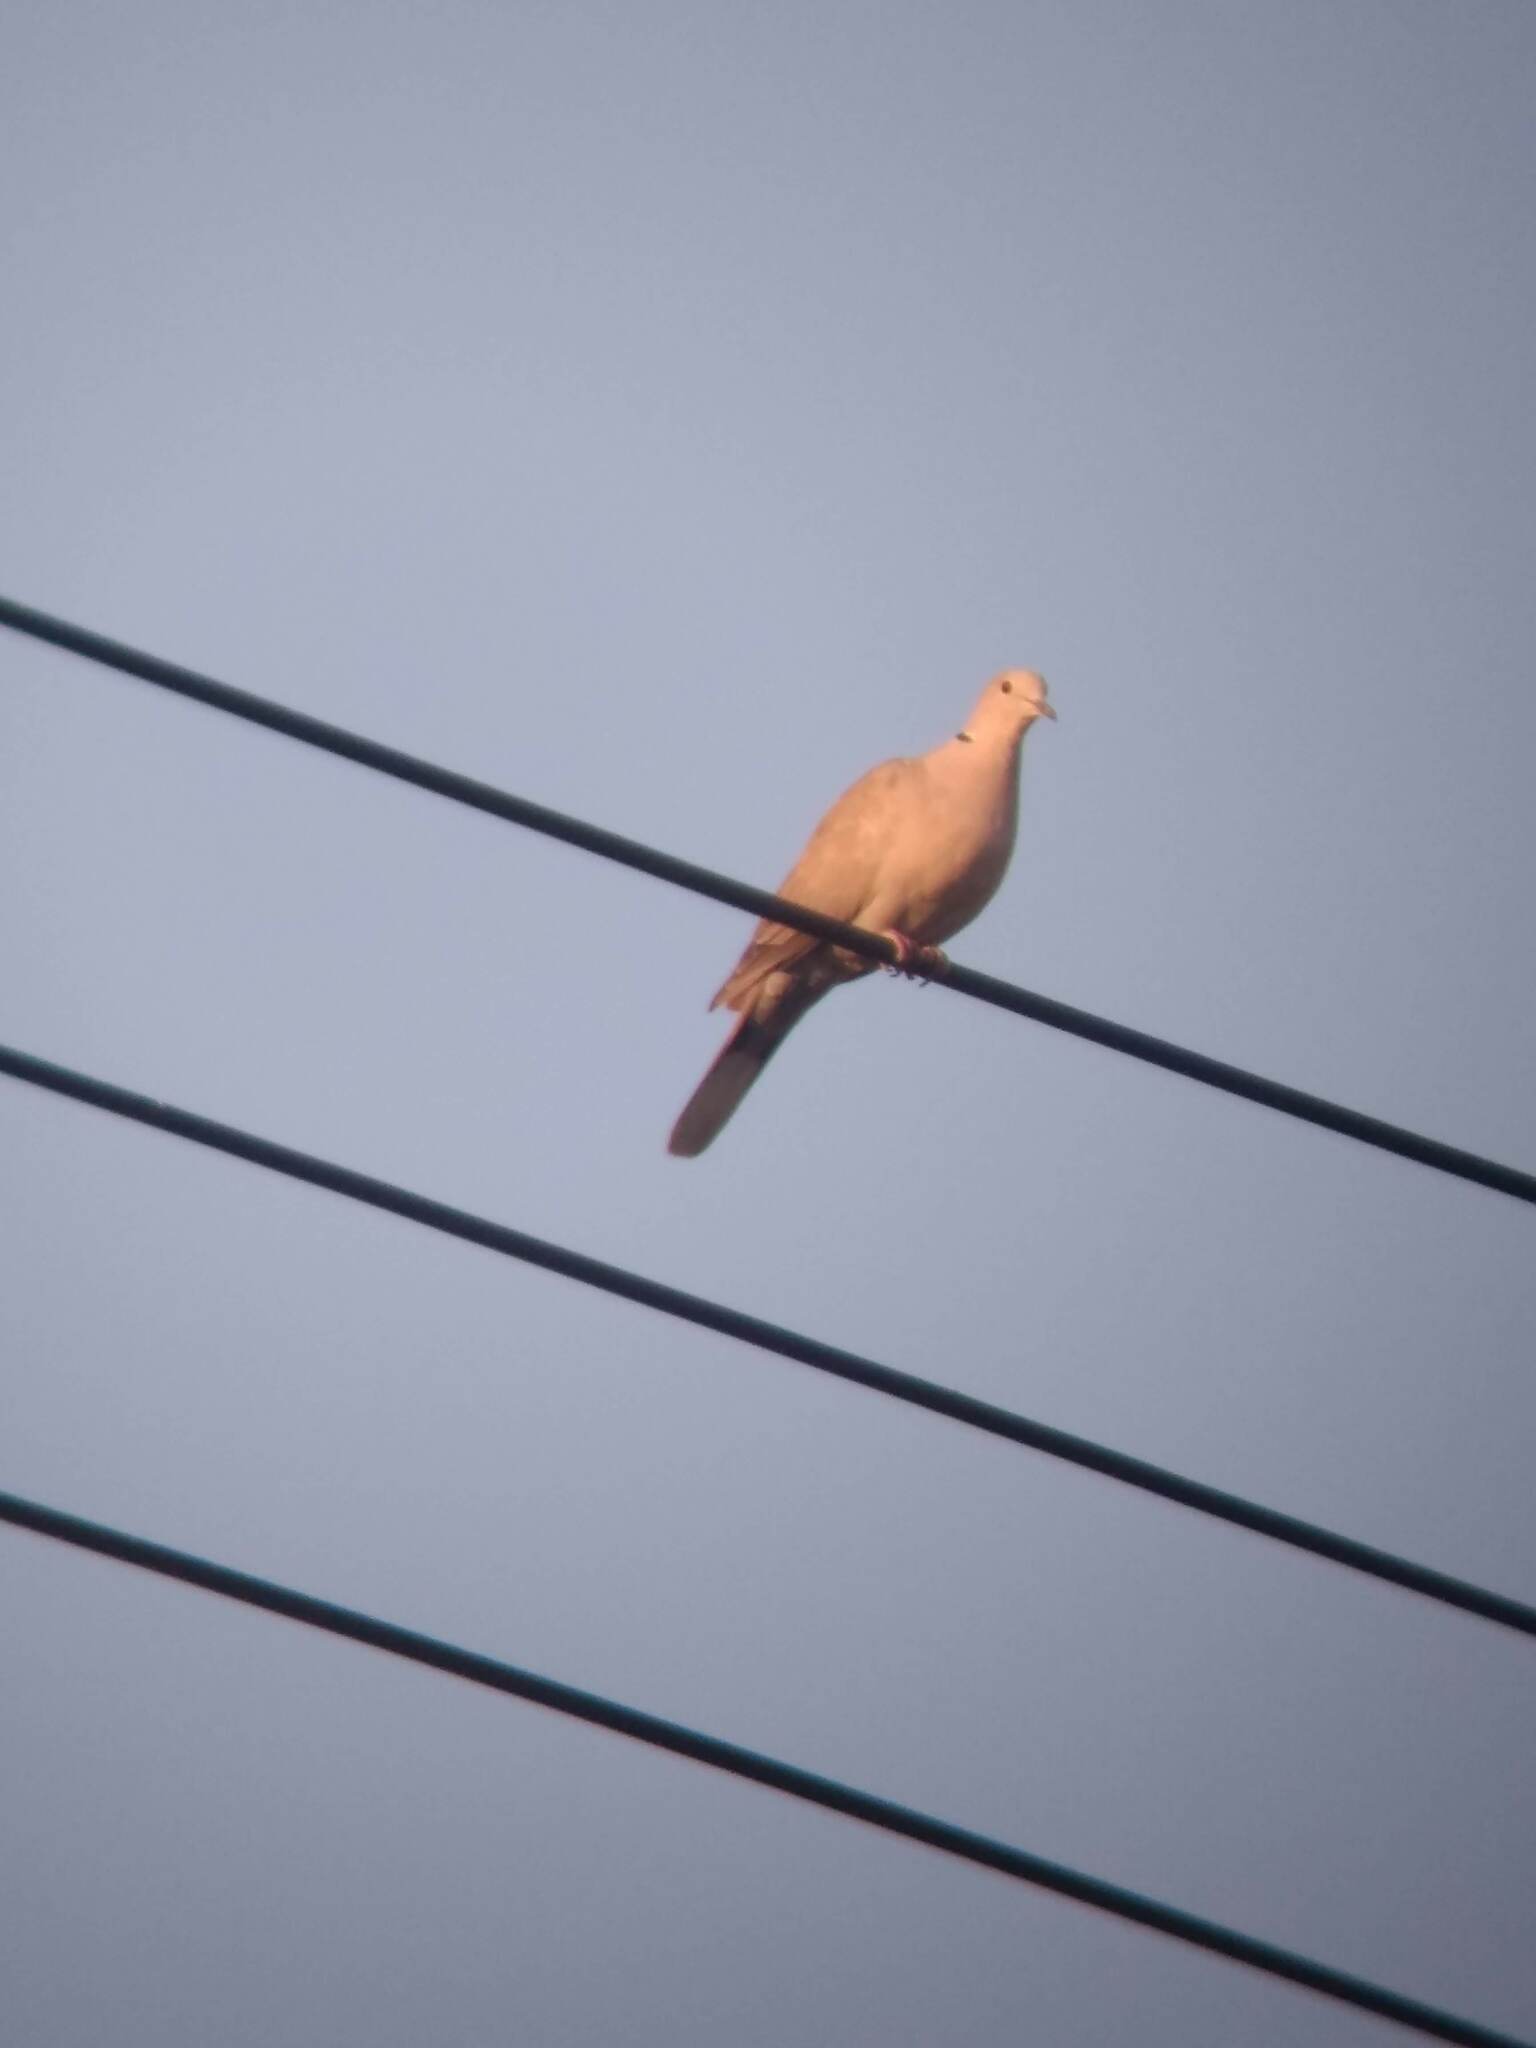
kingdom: Animalia
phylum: Chordata
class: Aves
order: Columbiformes
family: Columbidae
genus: Streptopelia
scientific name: Streptopelia decaocto
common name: Eurasian collared dove
